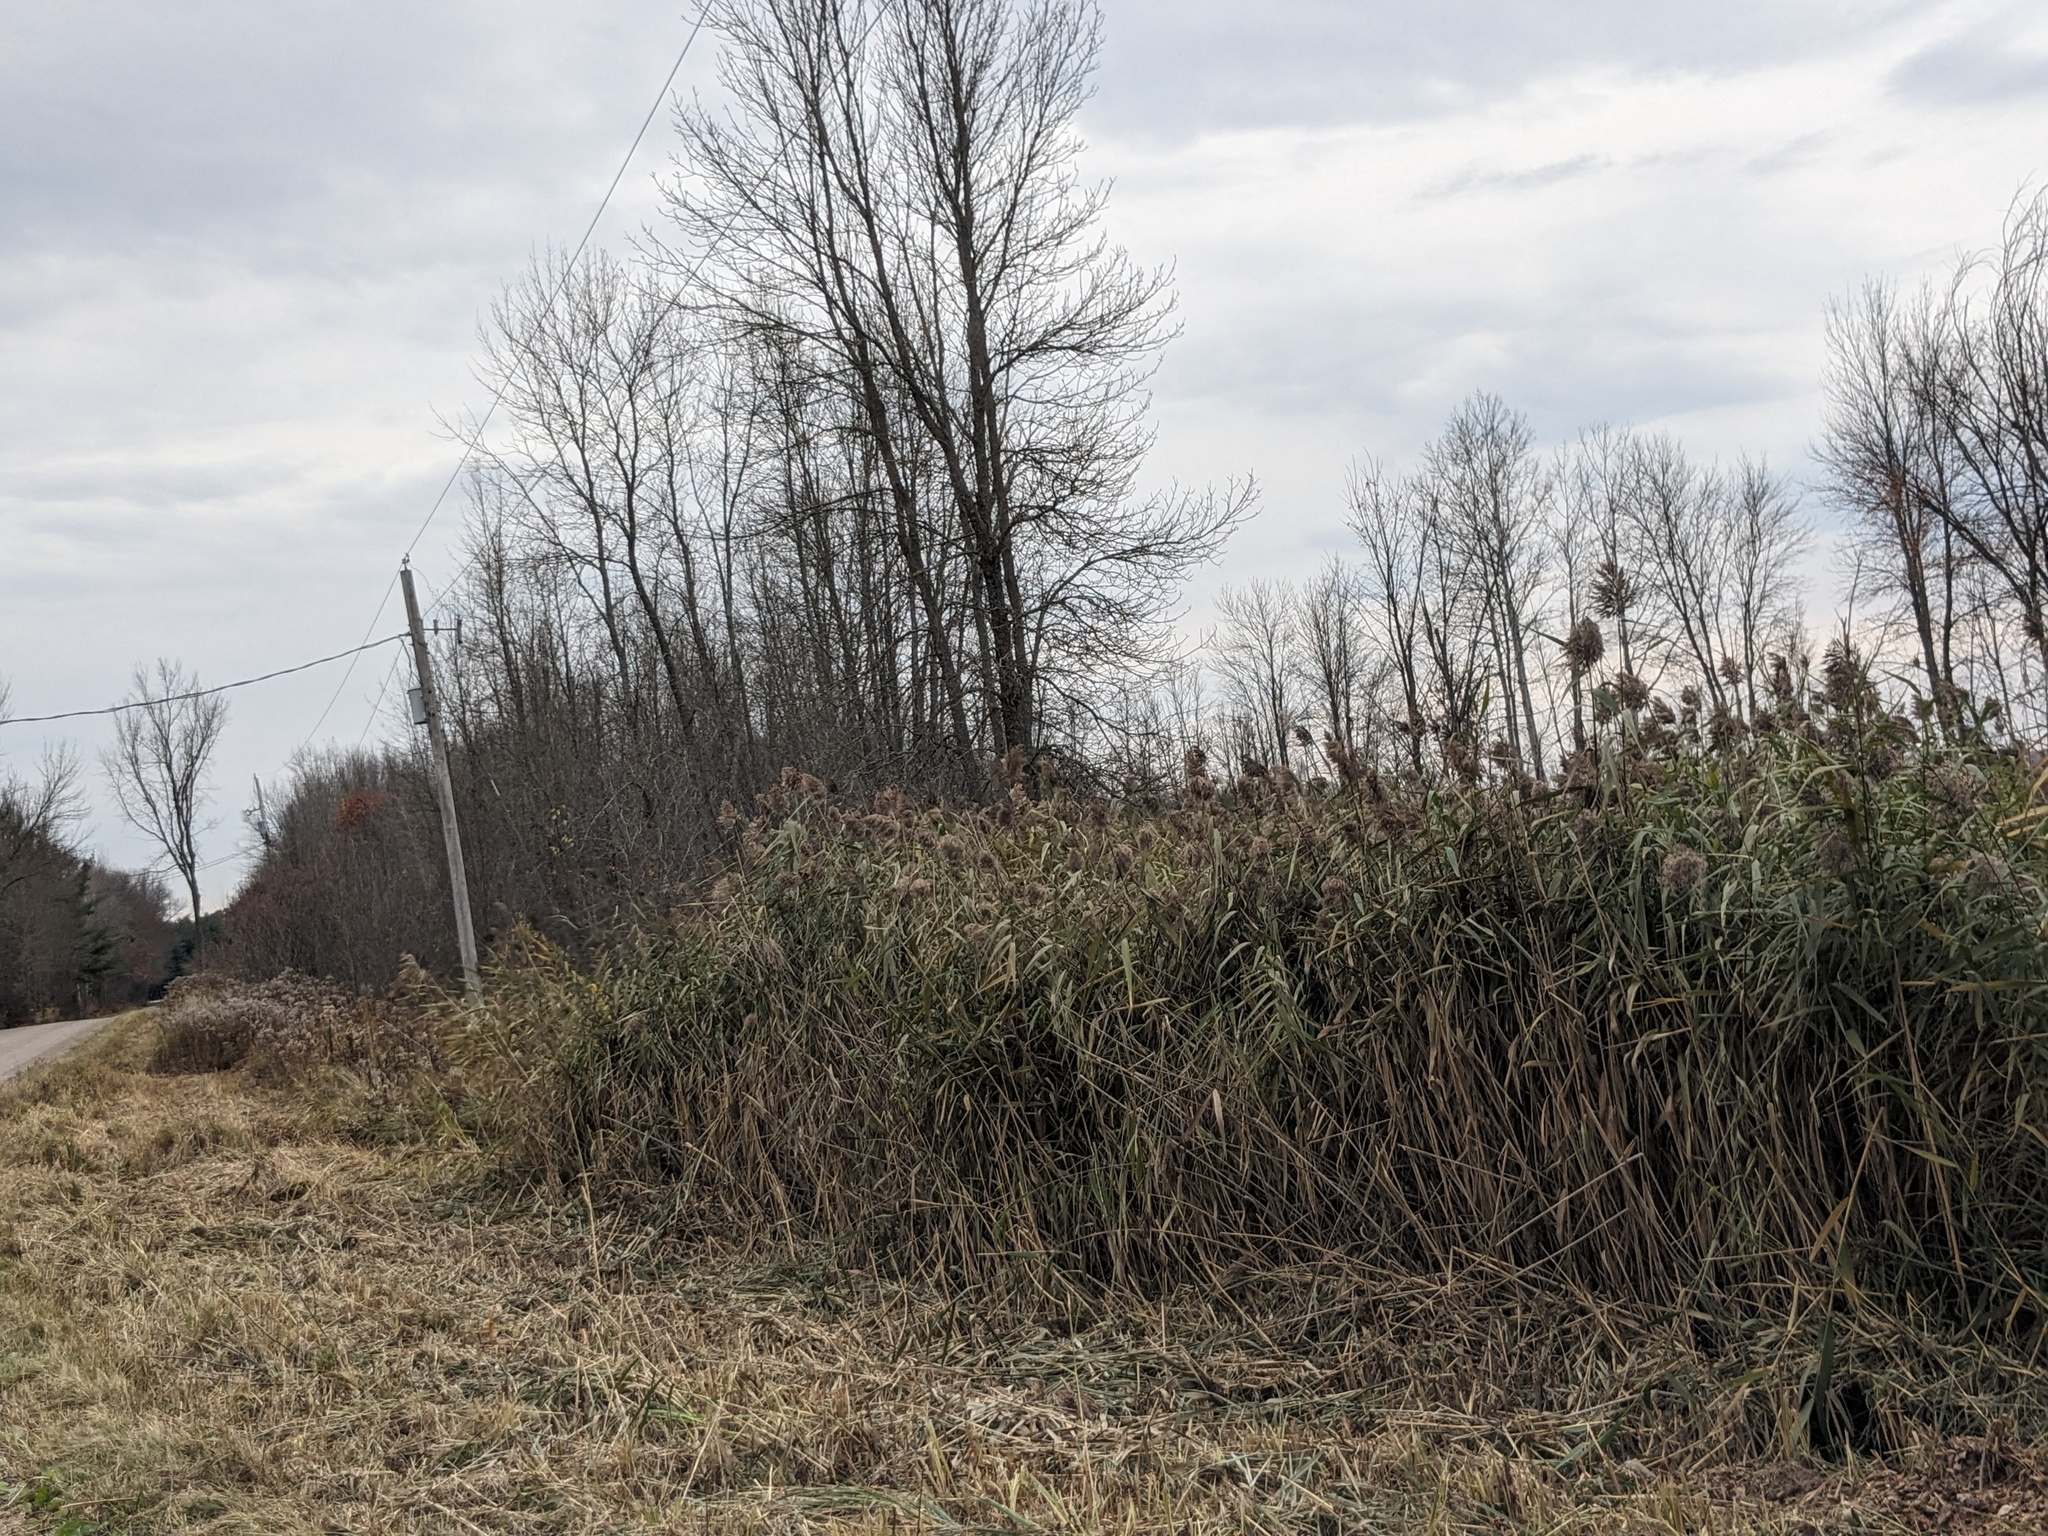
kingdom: Plantae
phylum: Tracheophyta
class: Liliopsida
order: Poales
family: Poaceae
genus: Phragmites
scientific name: Phragmites australis
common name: Common reed
